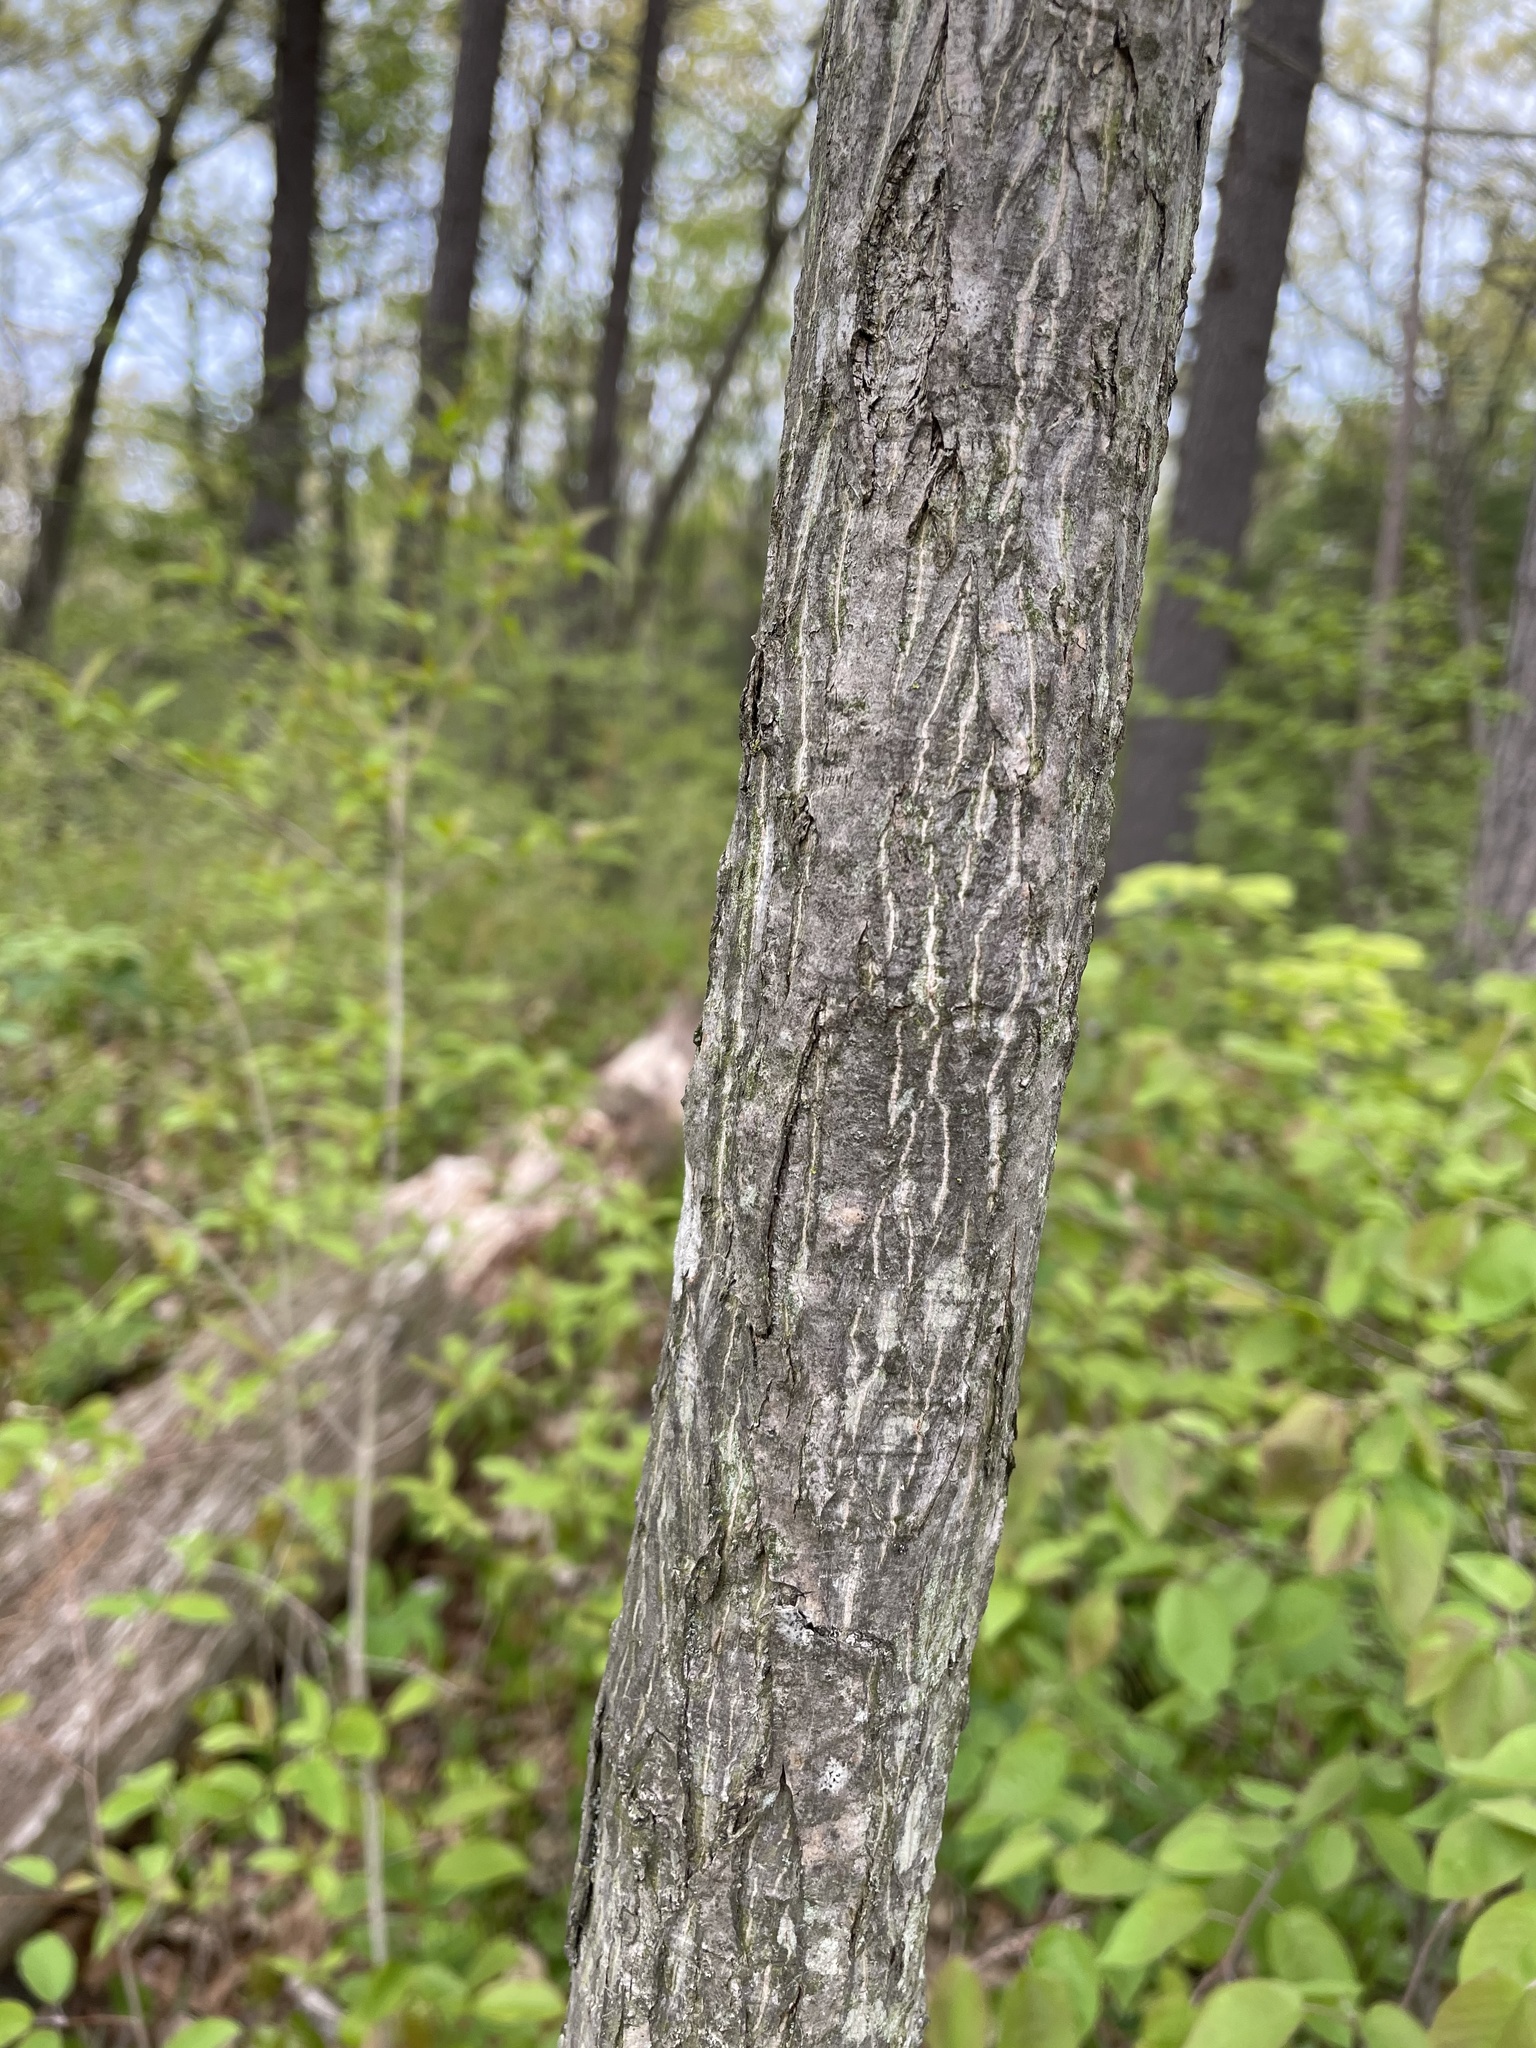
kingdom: Plantae
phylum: Tracheophyta
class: Magnoliopsida
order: Fagales
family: Juglandaceae
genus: Carya
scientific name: Carya ovata
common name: Shagbark hickory
